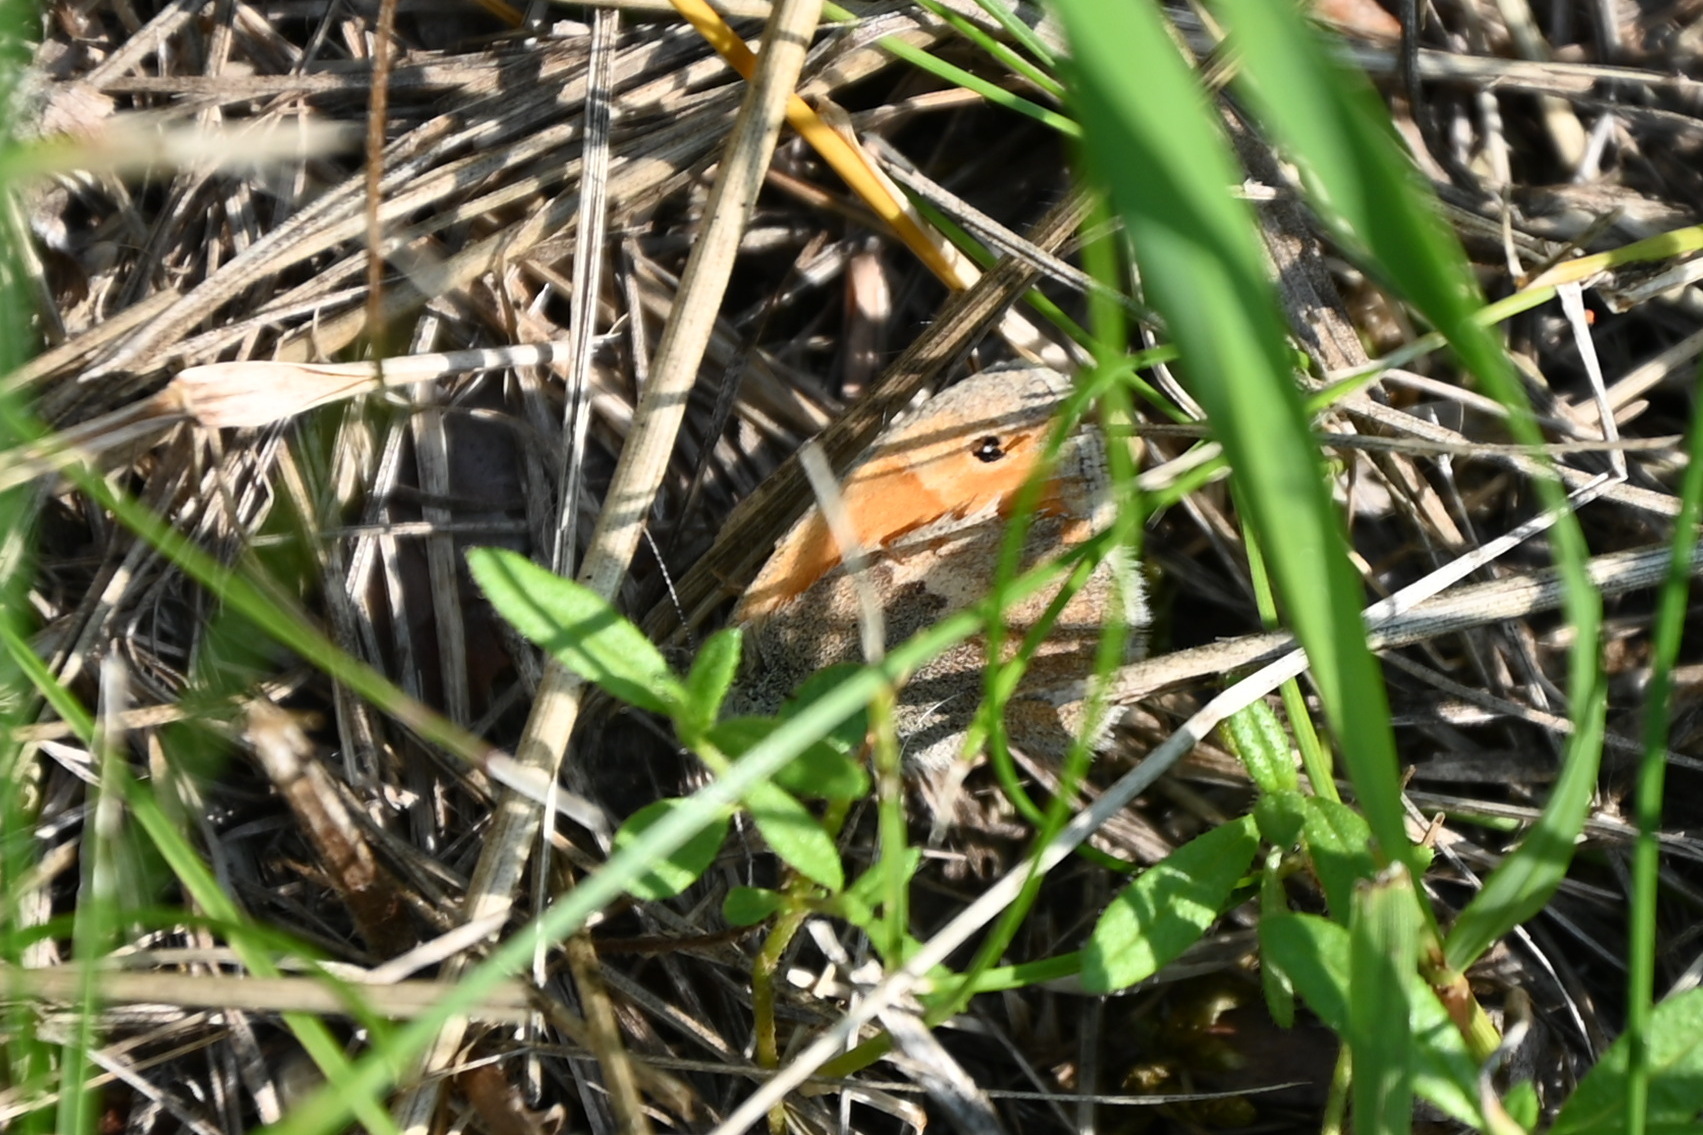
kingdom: Animalia
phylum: Arthropoda
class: Insecta
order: Lepidoptera
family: Nymphalidae
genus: Coenonympha
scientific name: Coenonympha pamphilus
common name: Small heath
